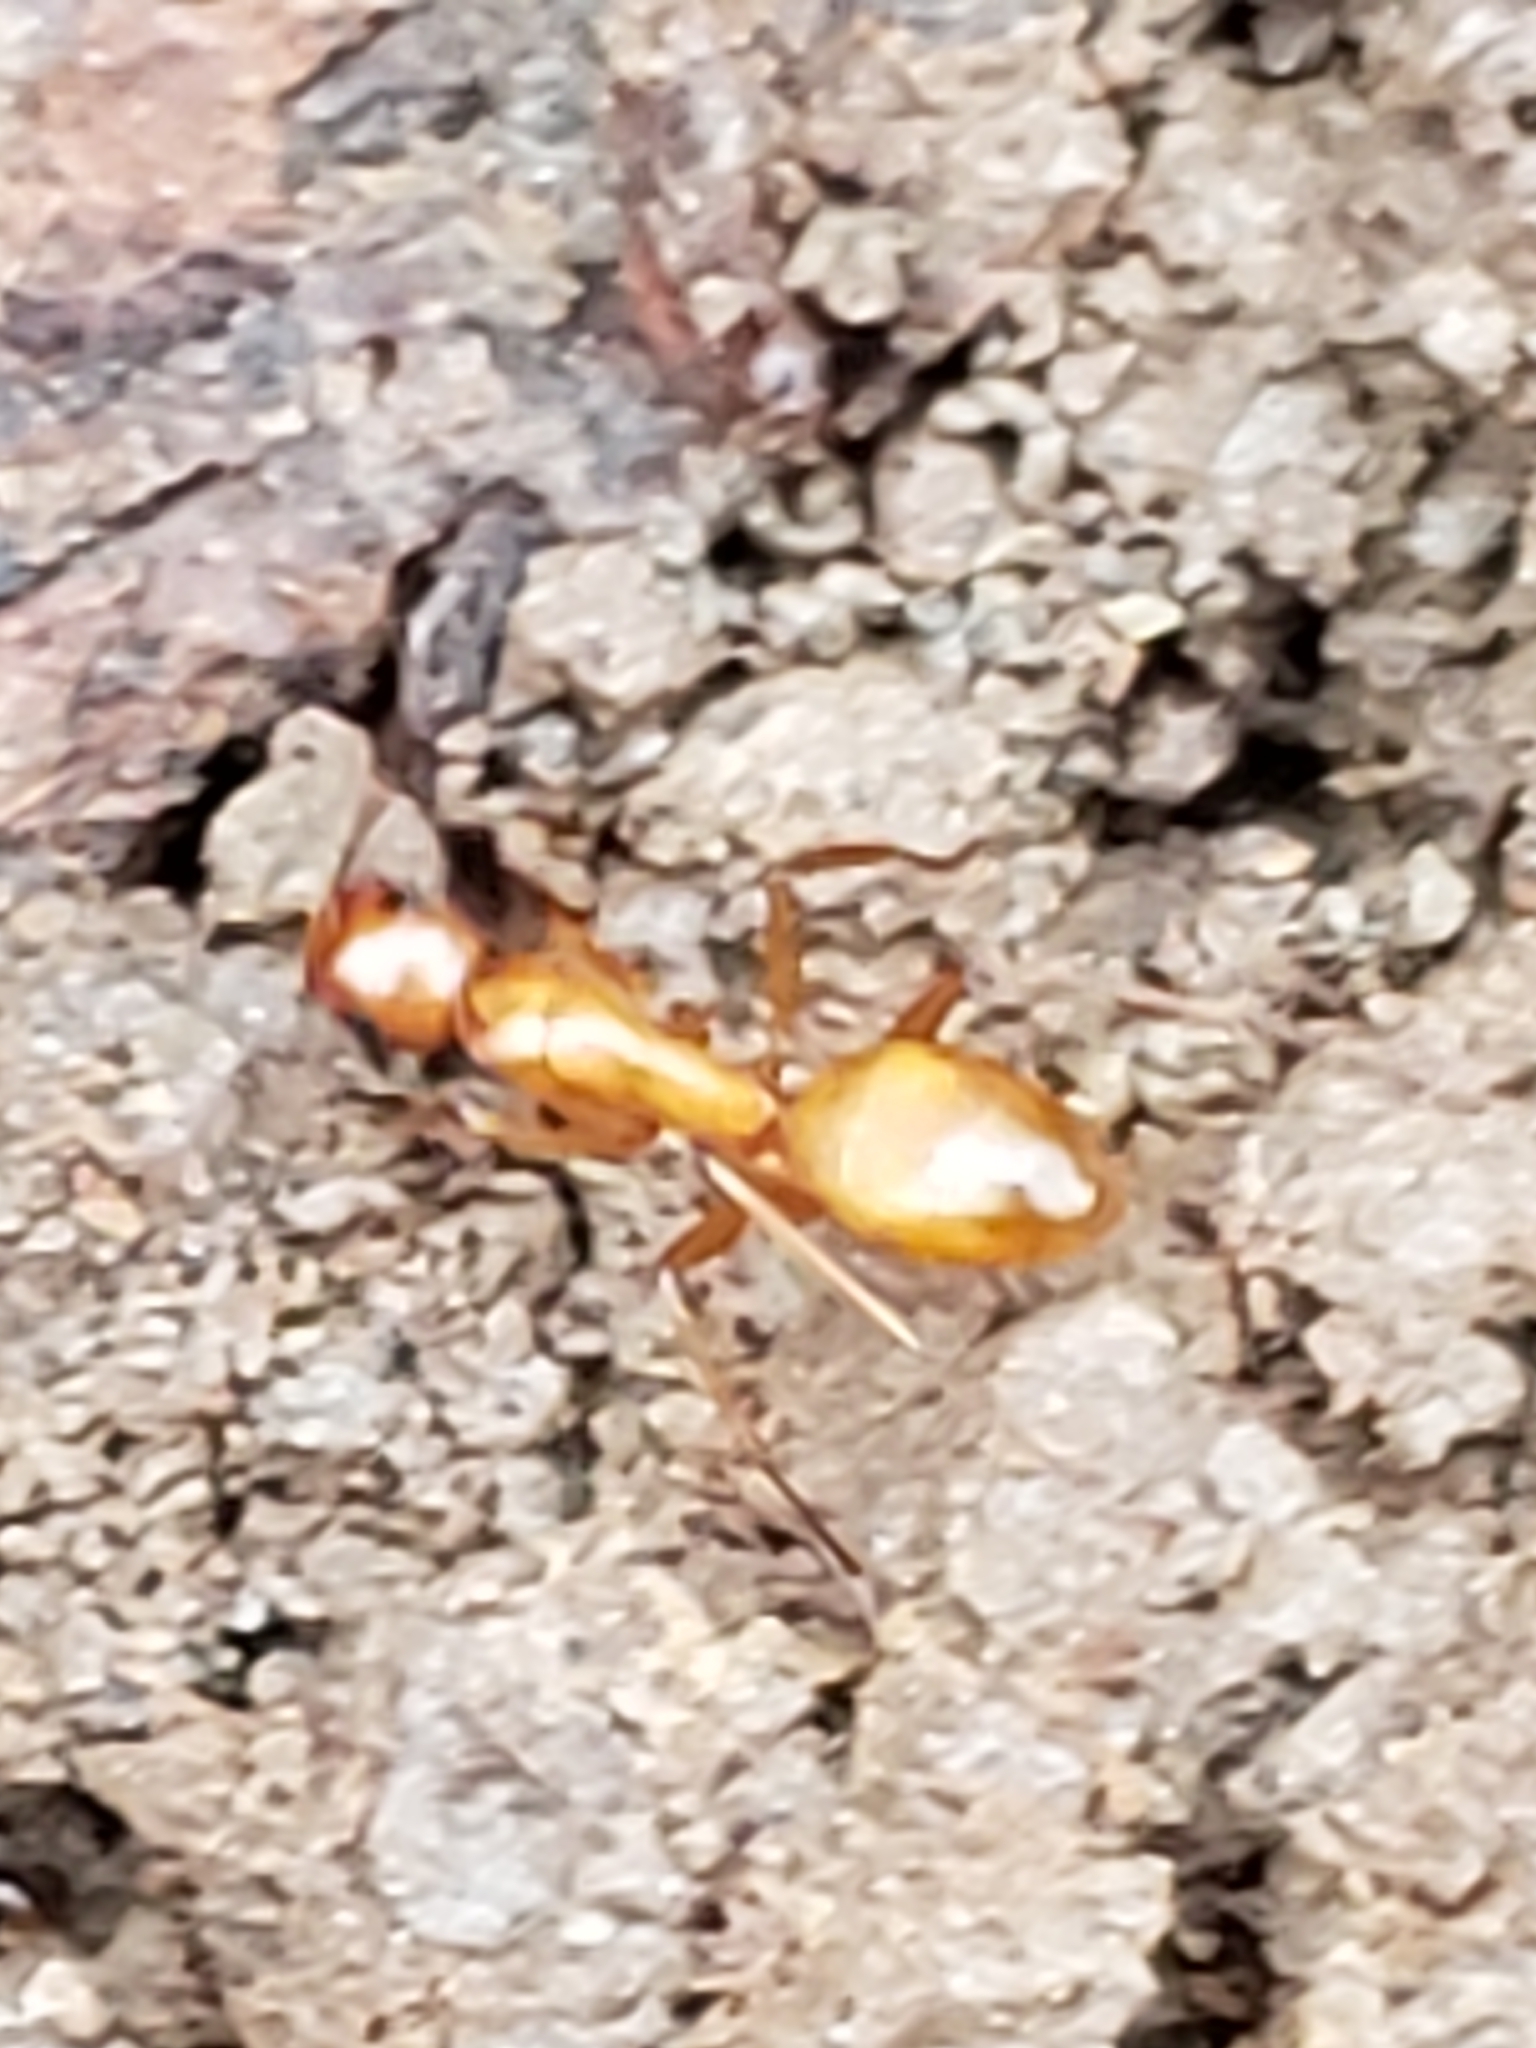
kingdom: Animalia
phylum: Arthropoda
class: Insecta
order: Hymenoptera
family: Formicidae
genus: Camponotus
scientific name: Camponotus castaneus
